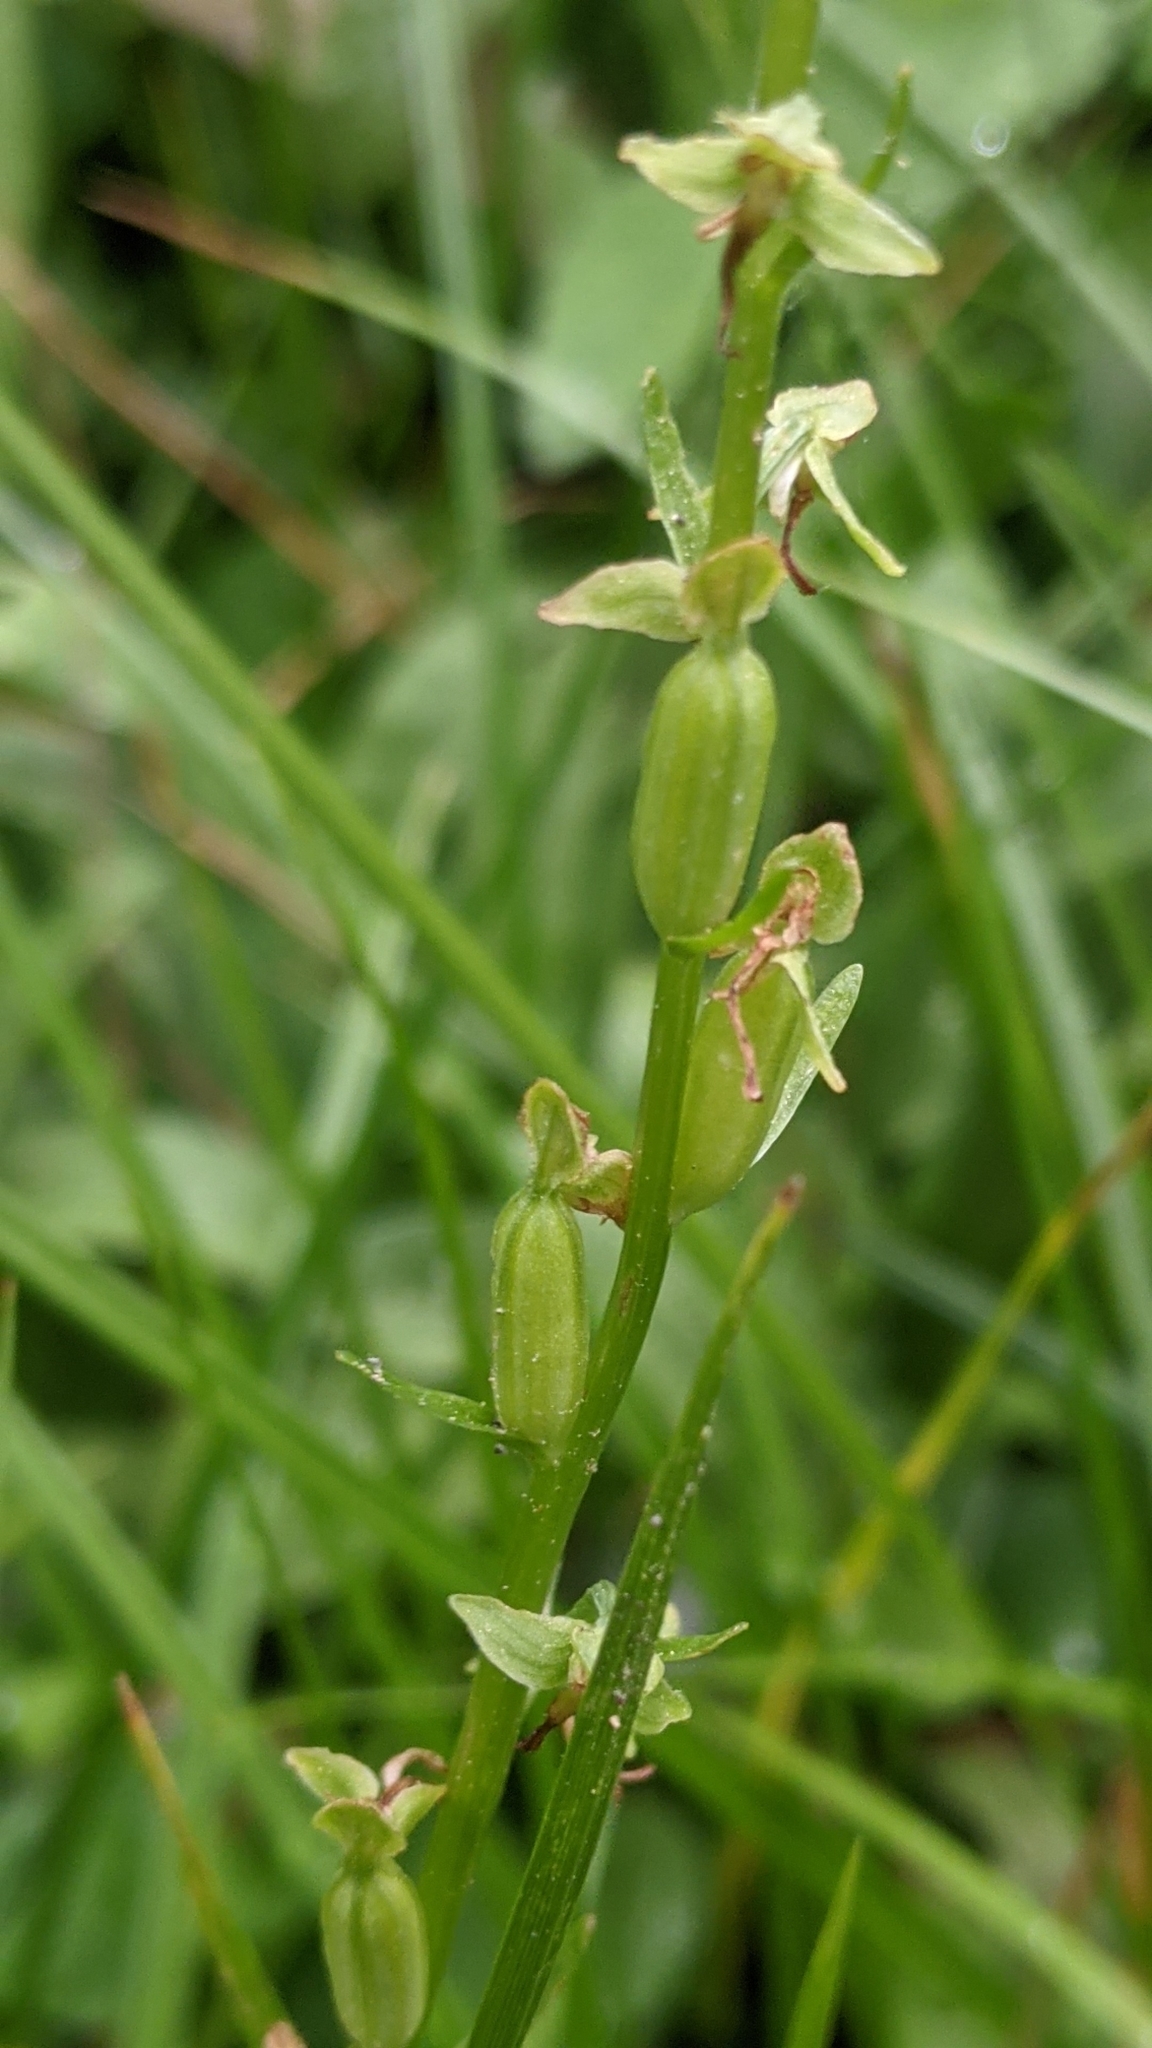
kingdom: Plantae
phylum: Tracheophyta
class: Liliopsida
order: Asparagales
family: Orchidaceae
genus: Platanthera
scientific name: Platanthera sparsiflora
